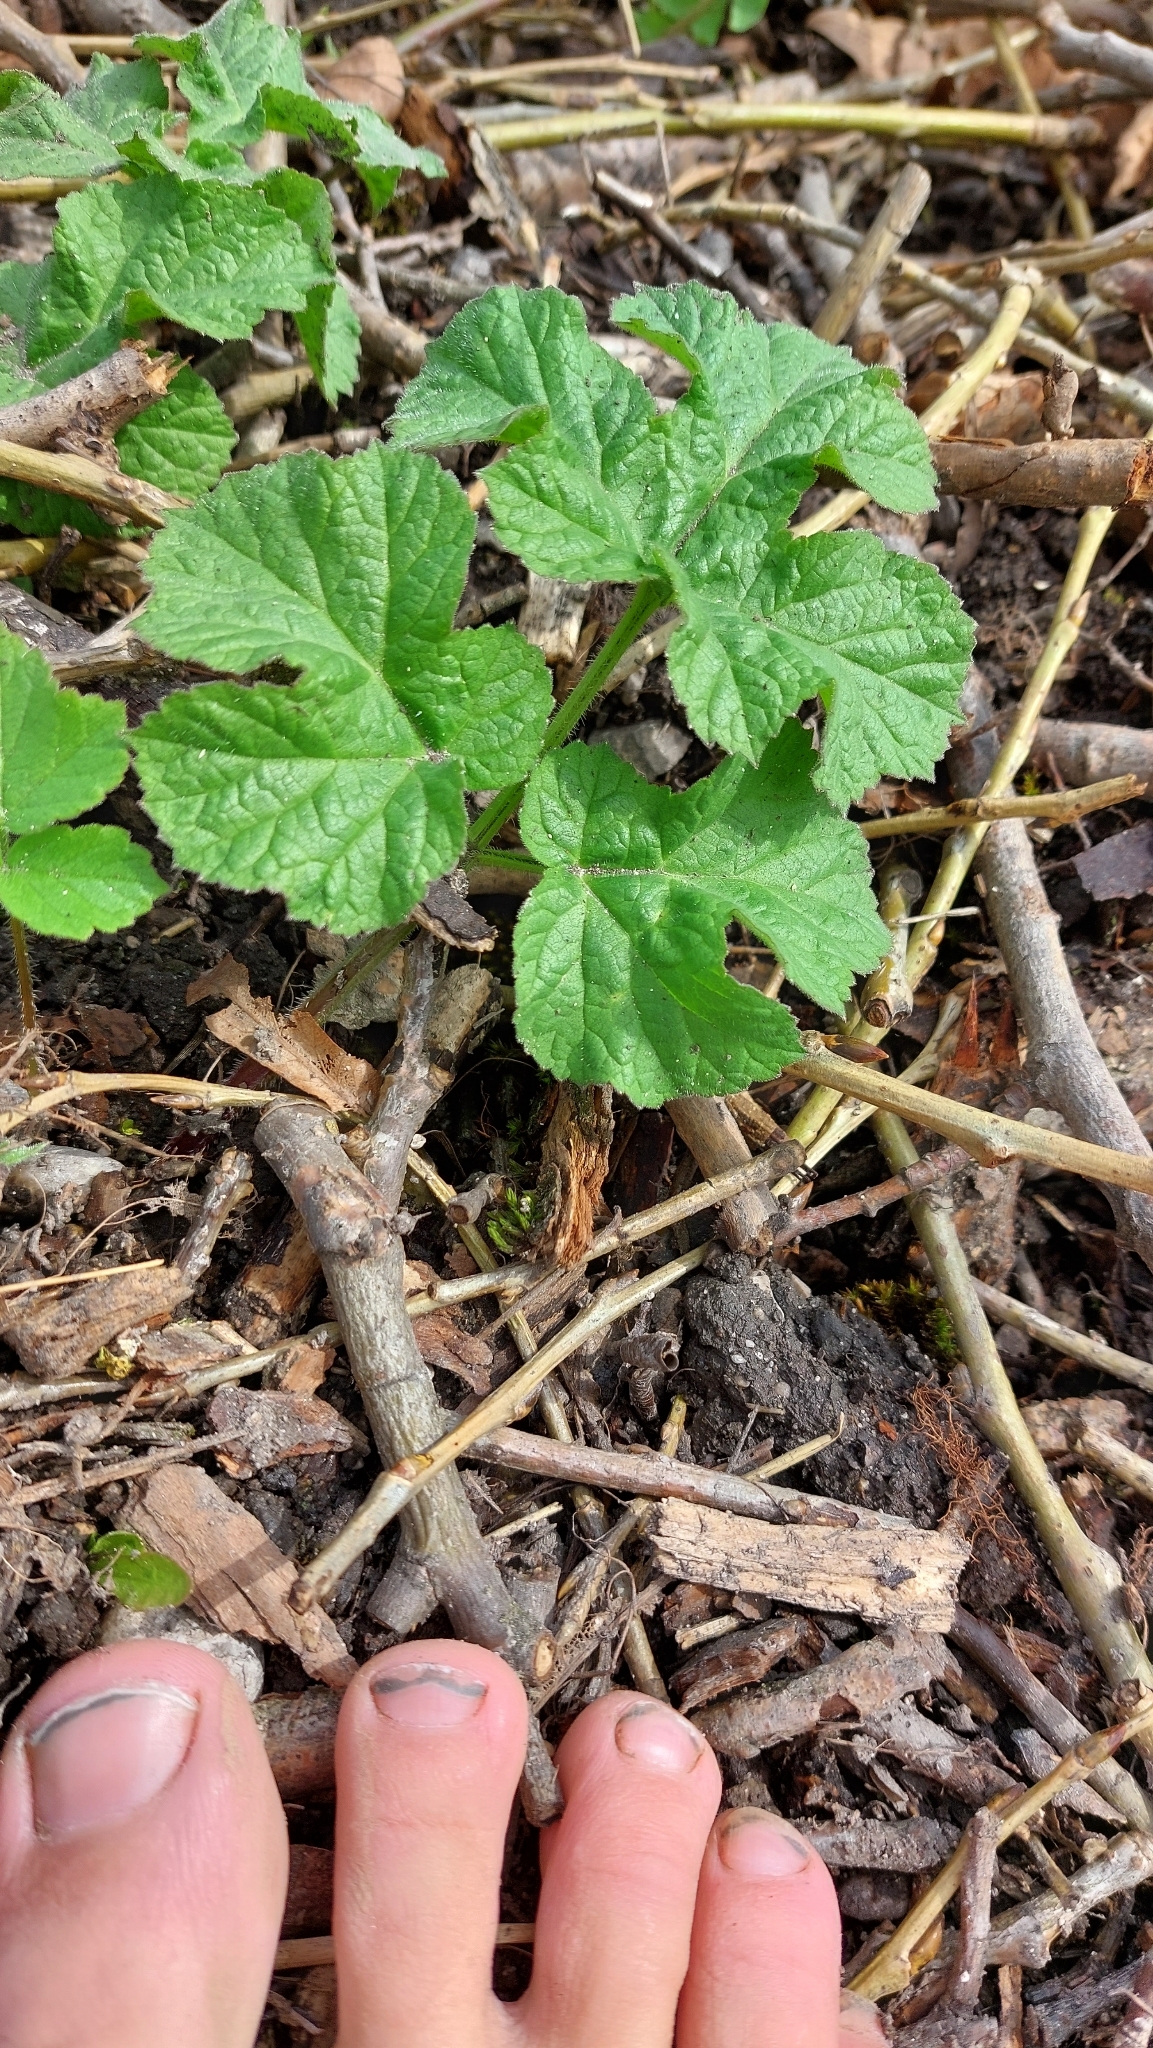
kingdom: Plantae
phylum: Tracheophyta
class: Magnoliopsida
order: Apiales
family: Apiaceae
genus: Heracleum
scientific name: Heracleum sphondylium
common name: Hogweed
